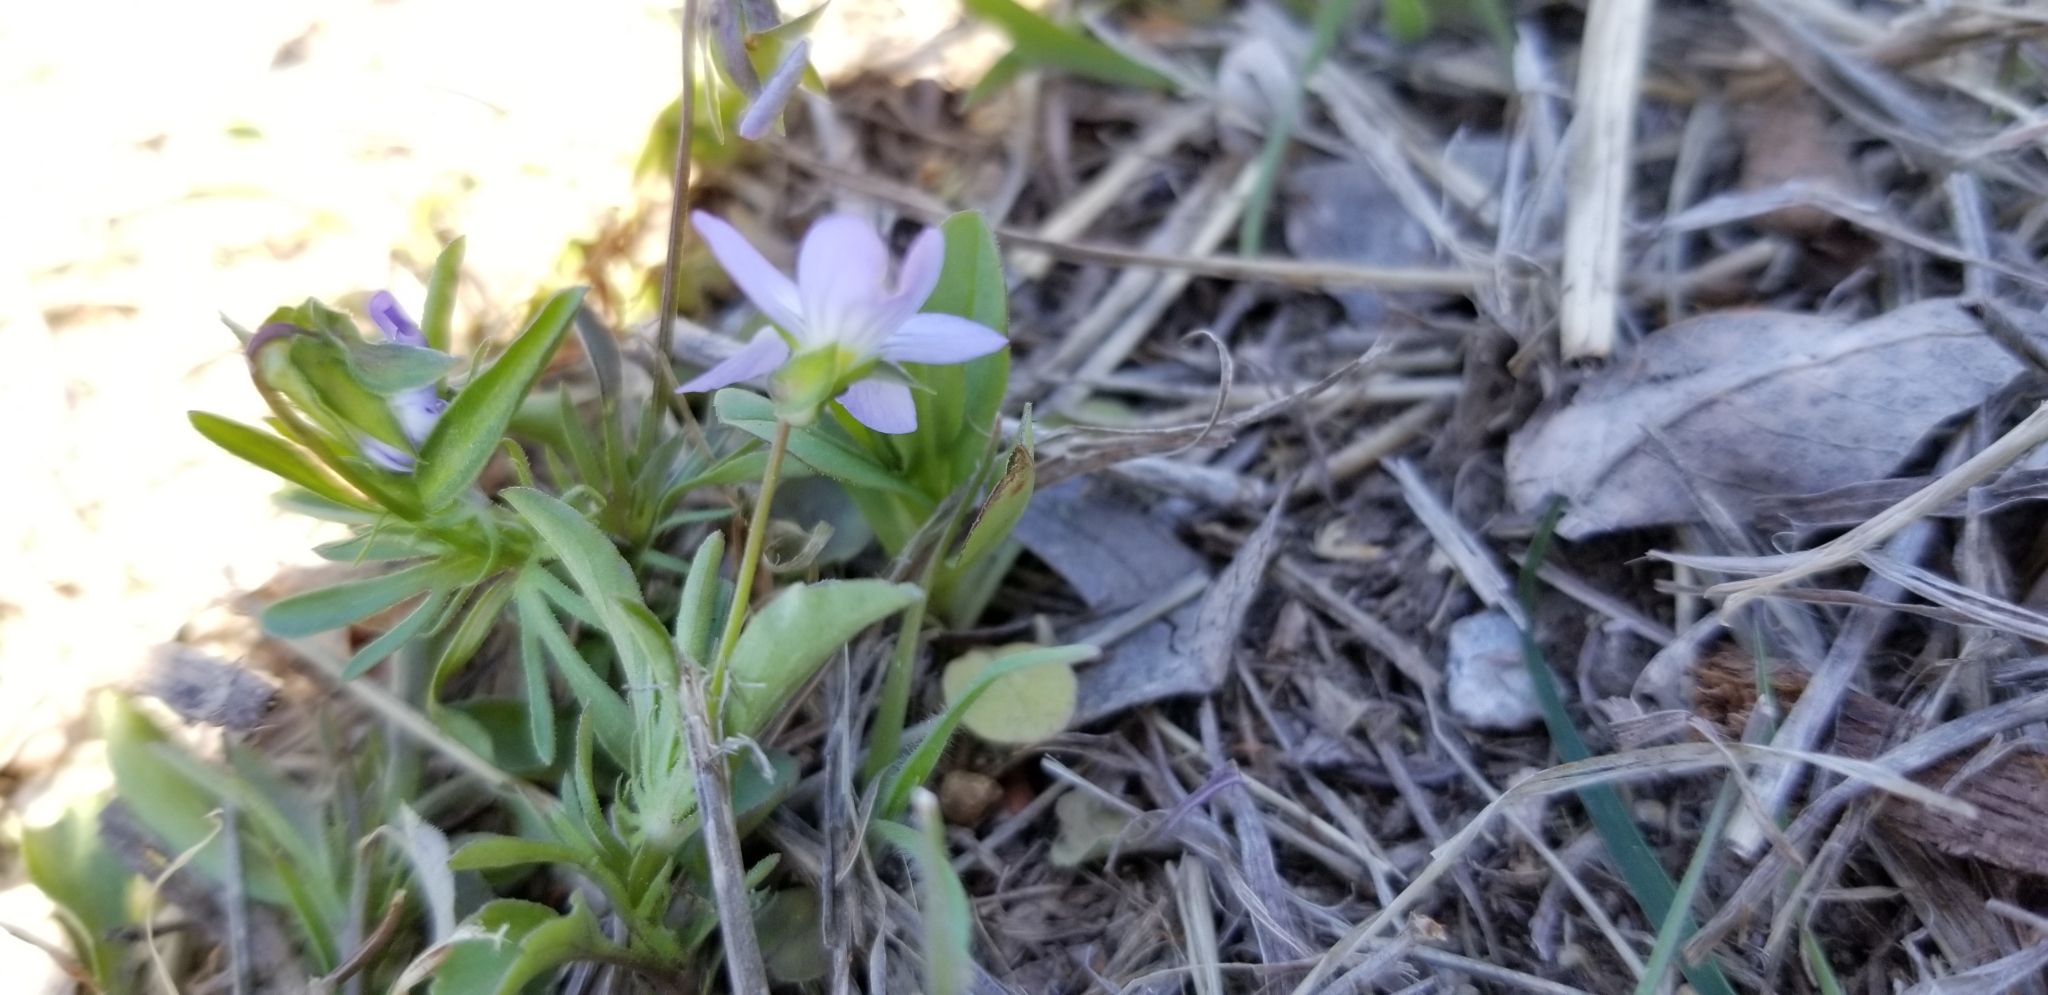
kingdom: Plantae
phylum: Tracheophyta
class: Magnoliopsida
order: Malpighiales
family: Violaceae
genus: Viola
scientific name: Viola rafinesquei
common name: American field pansy
